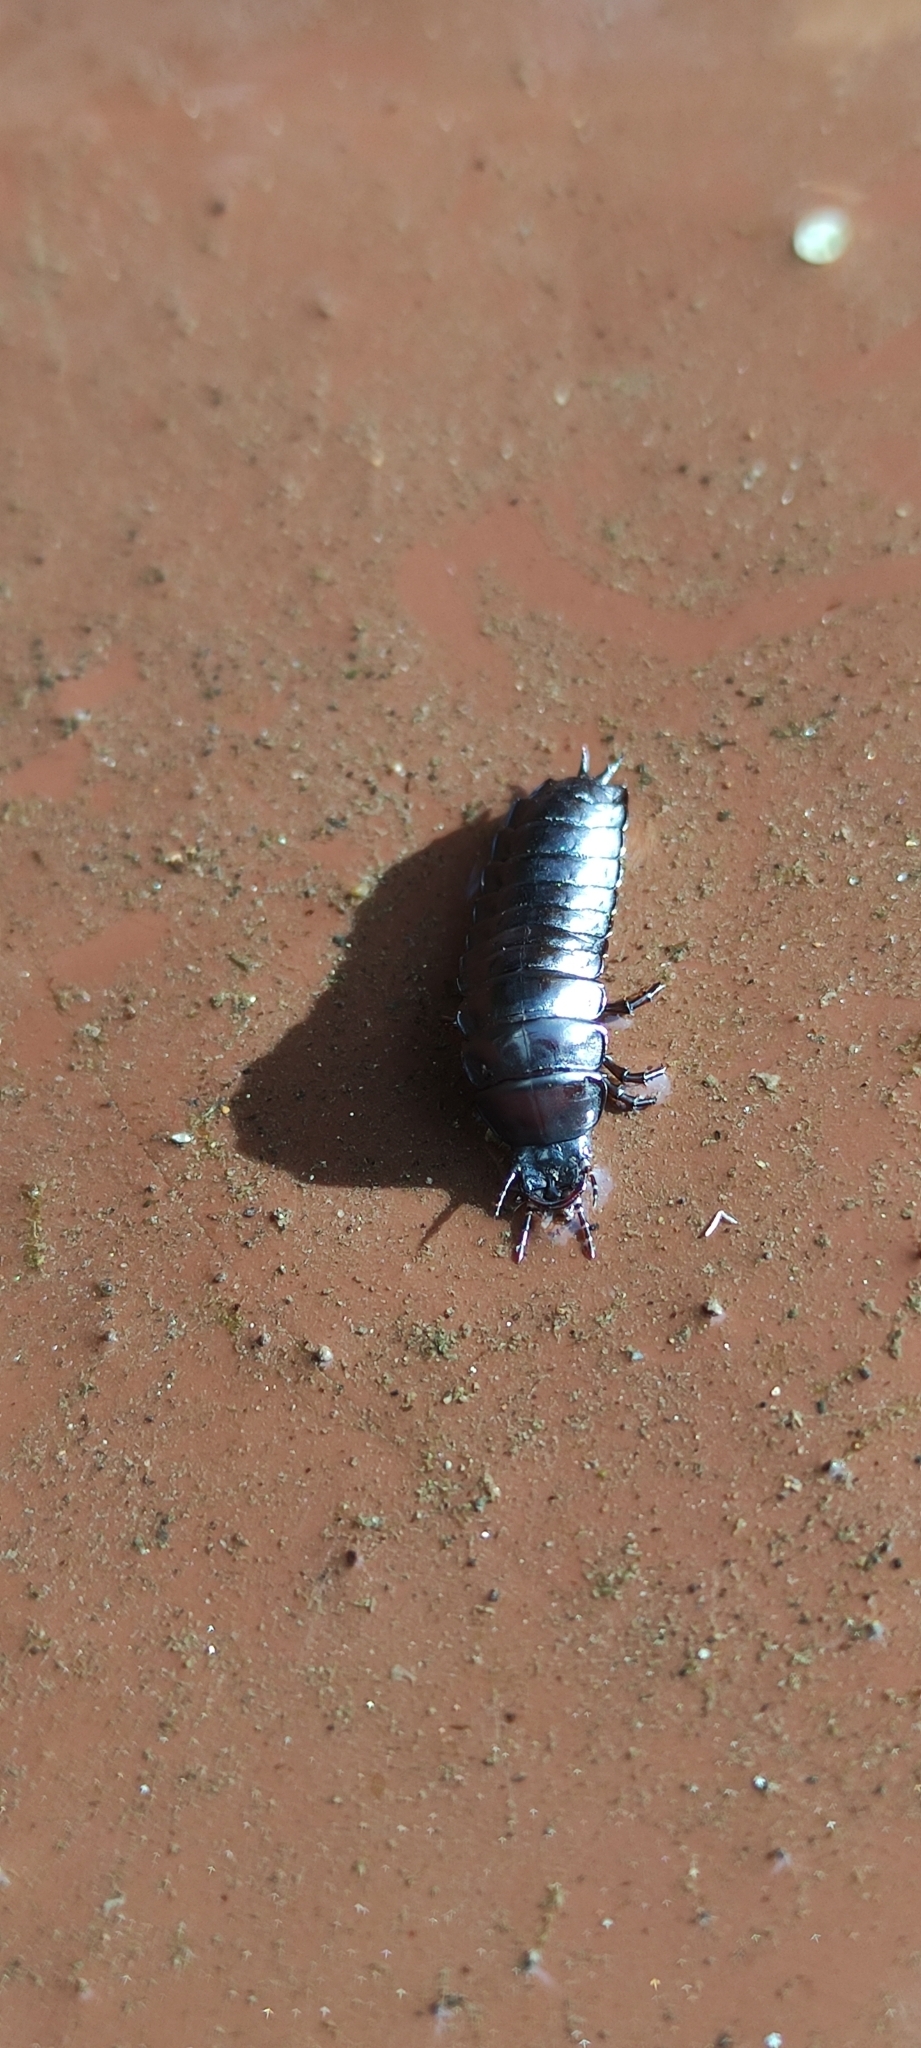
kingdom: Animalia
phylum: Arthropoda
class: Insecta
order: Coleoptera
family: Carabidae
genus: Carabus
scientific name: Carabus
